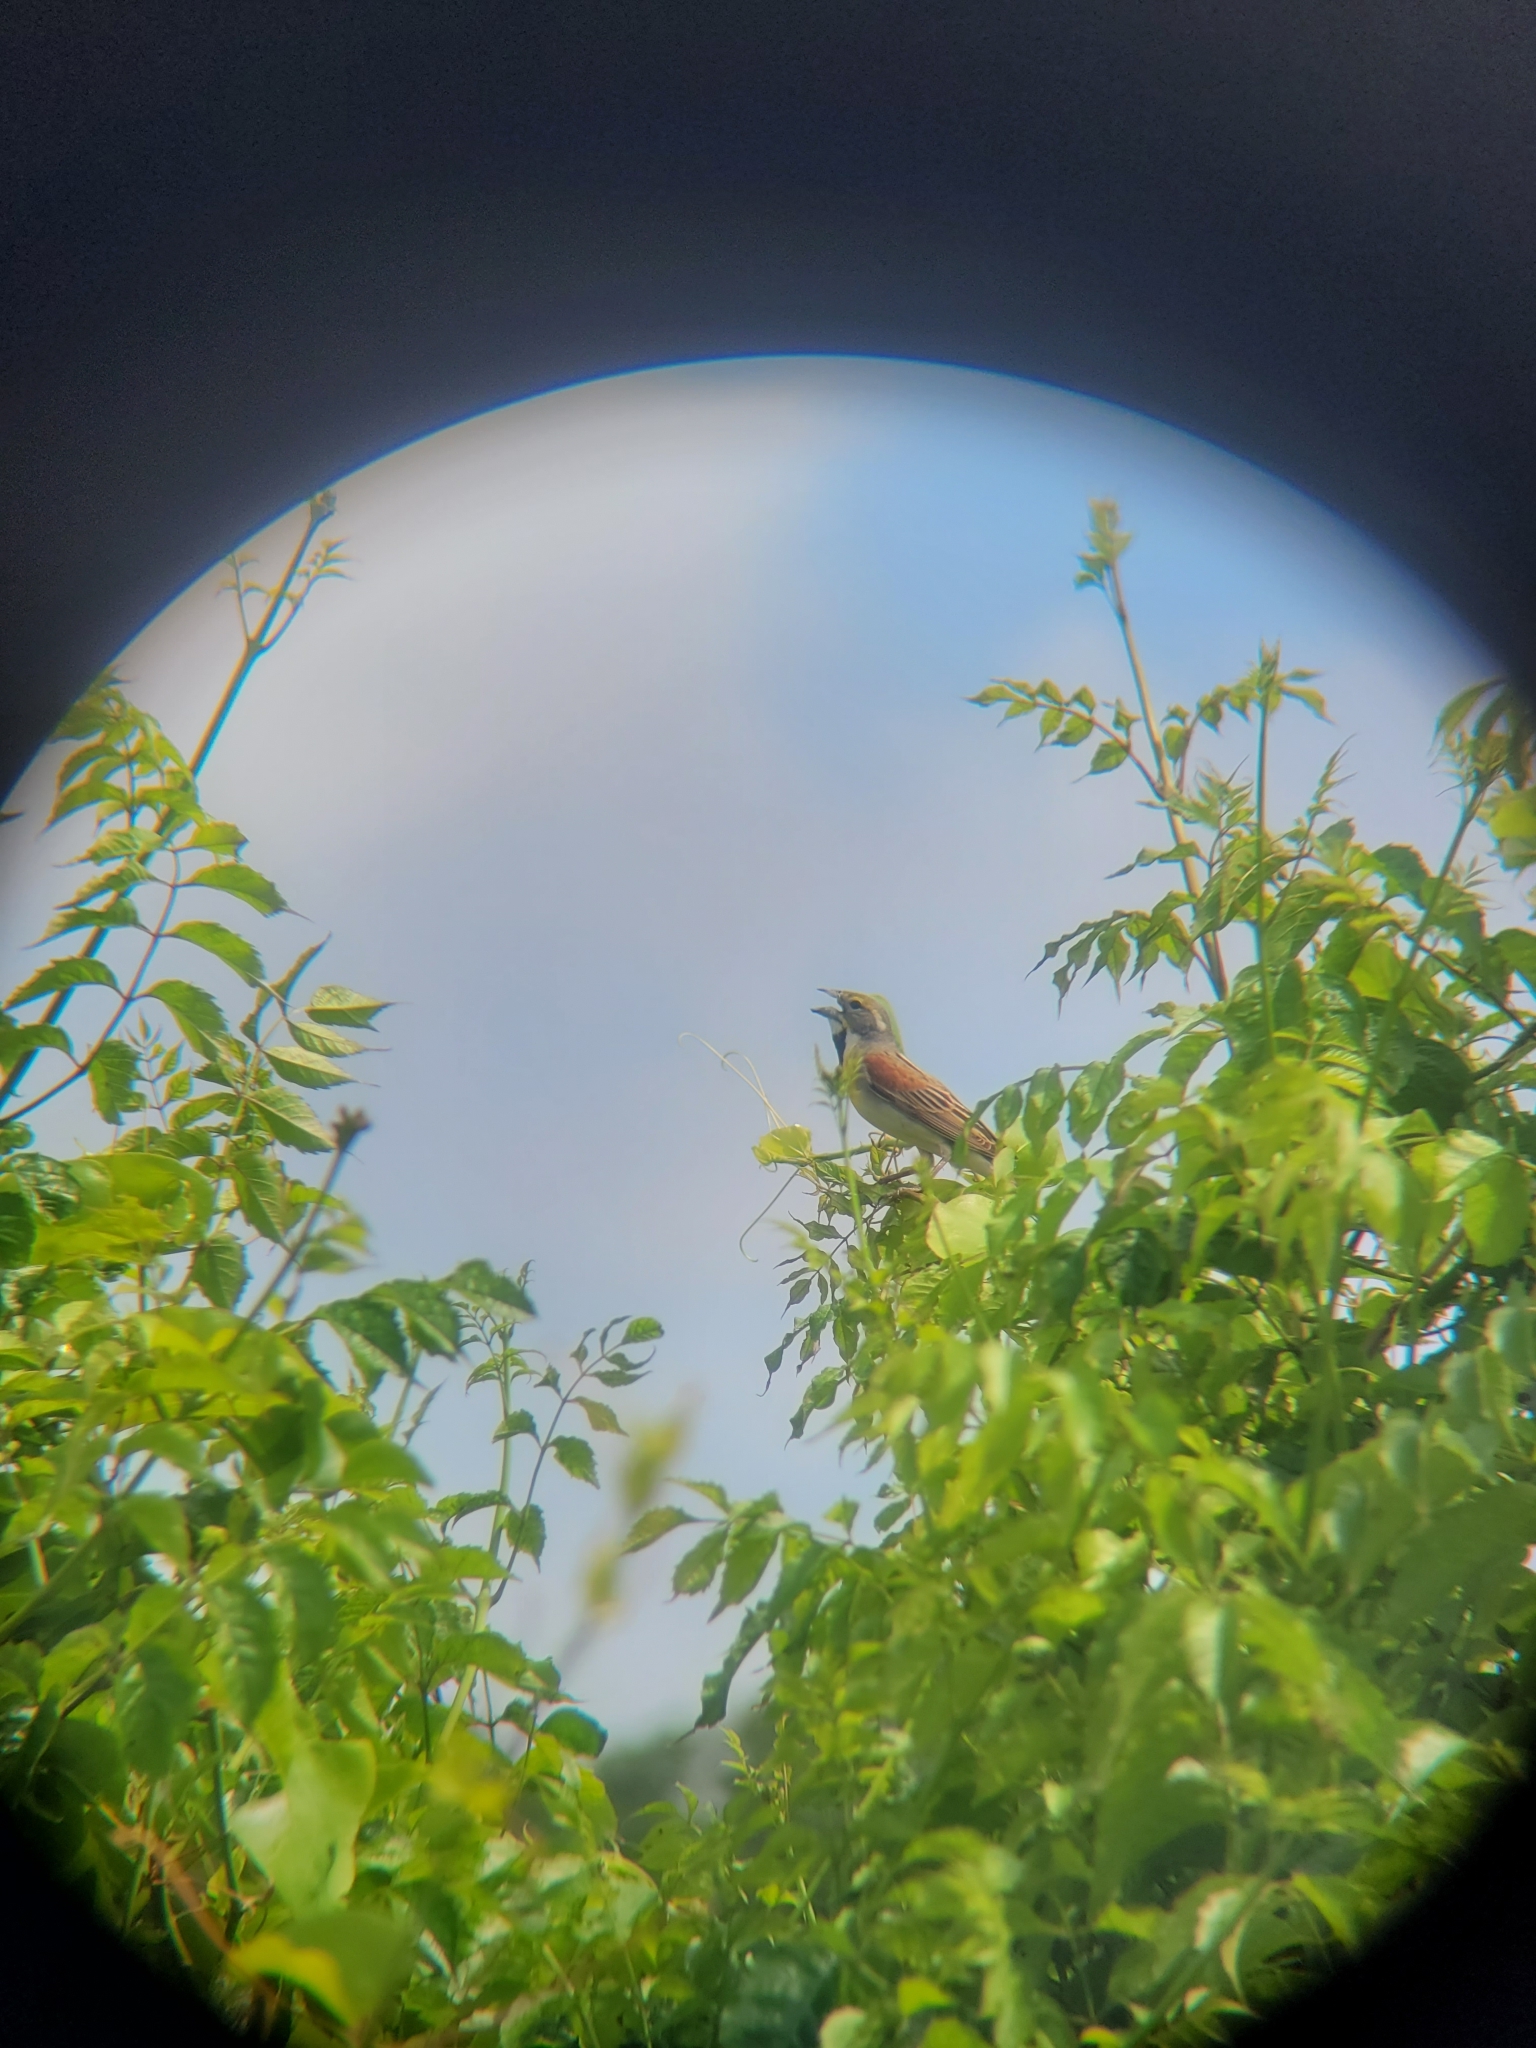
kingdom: Animalia
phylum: Chordata
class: Aves
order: Passeriformes
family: Cardinalidae
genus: Spiza
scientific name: Spiza americana
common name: Dickcissel
